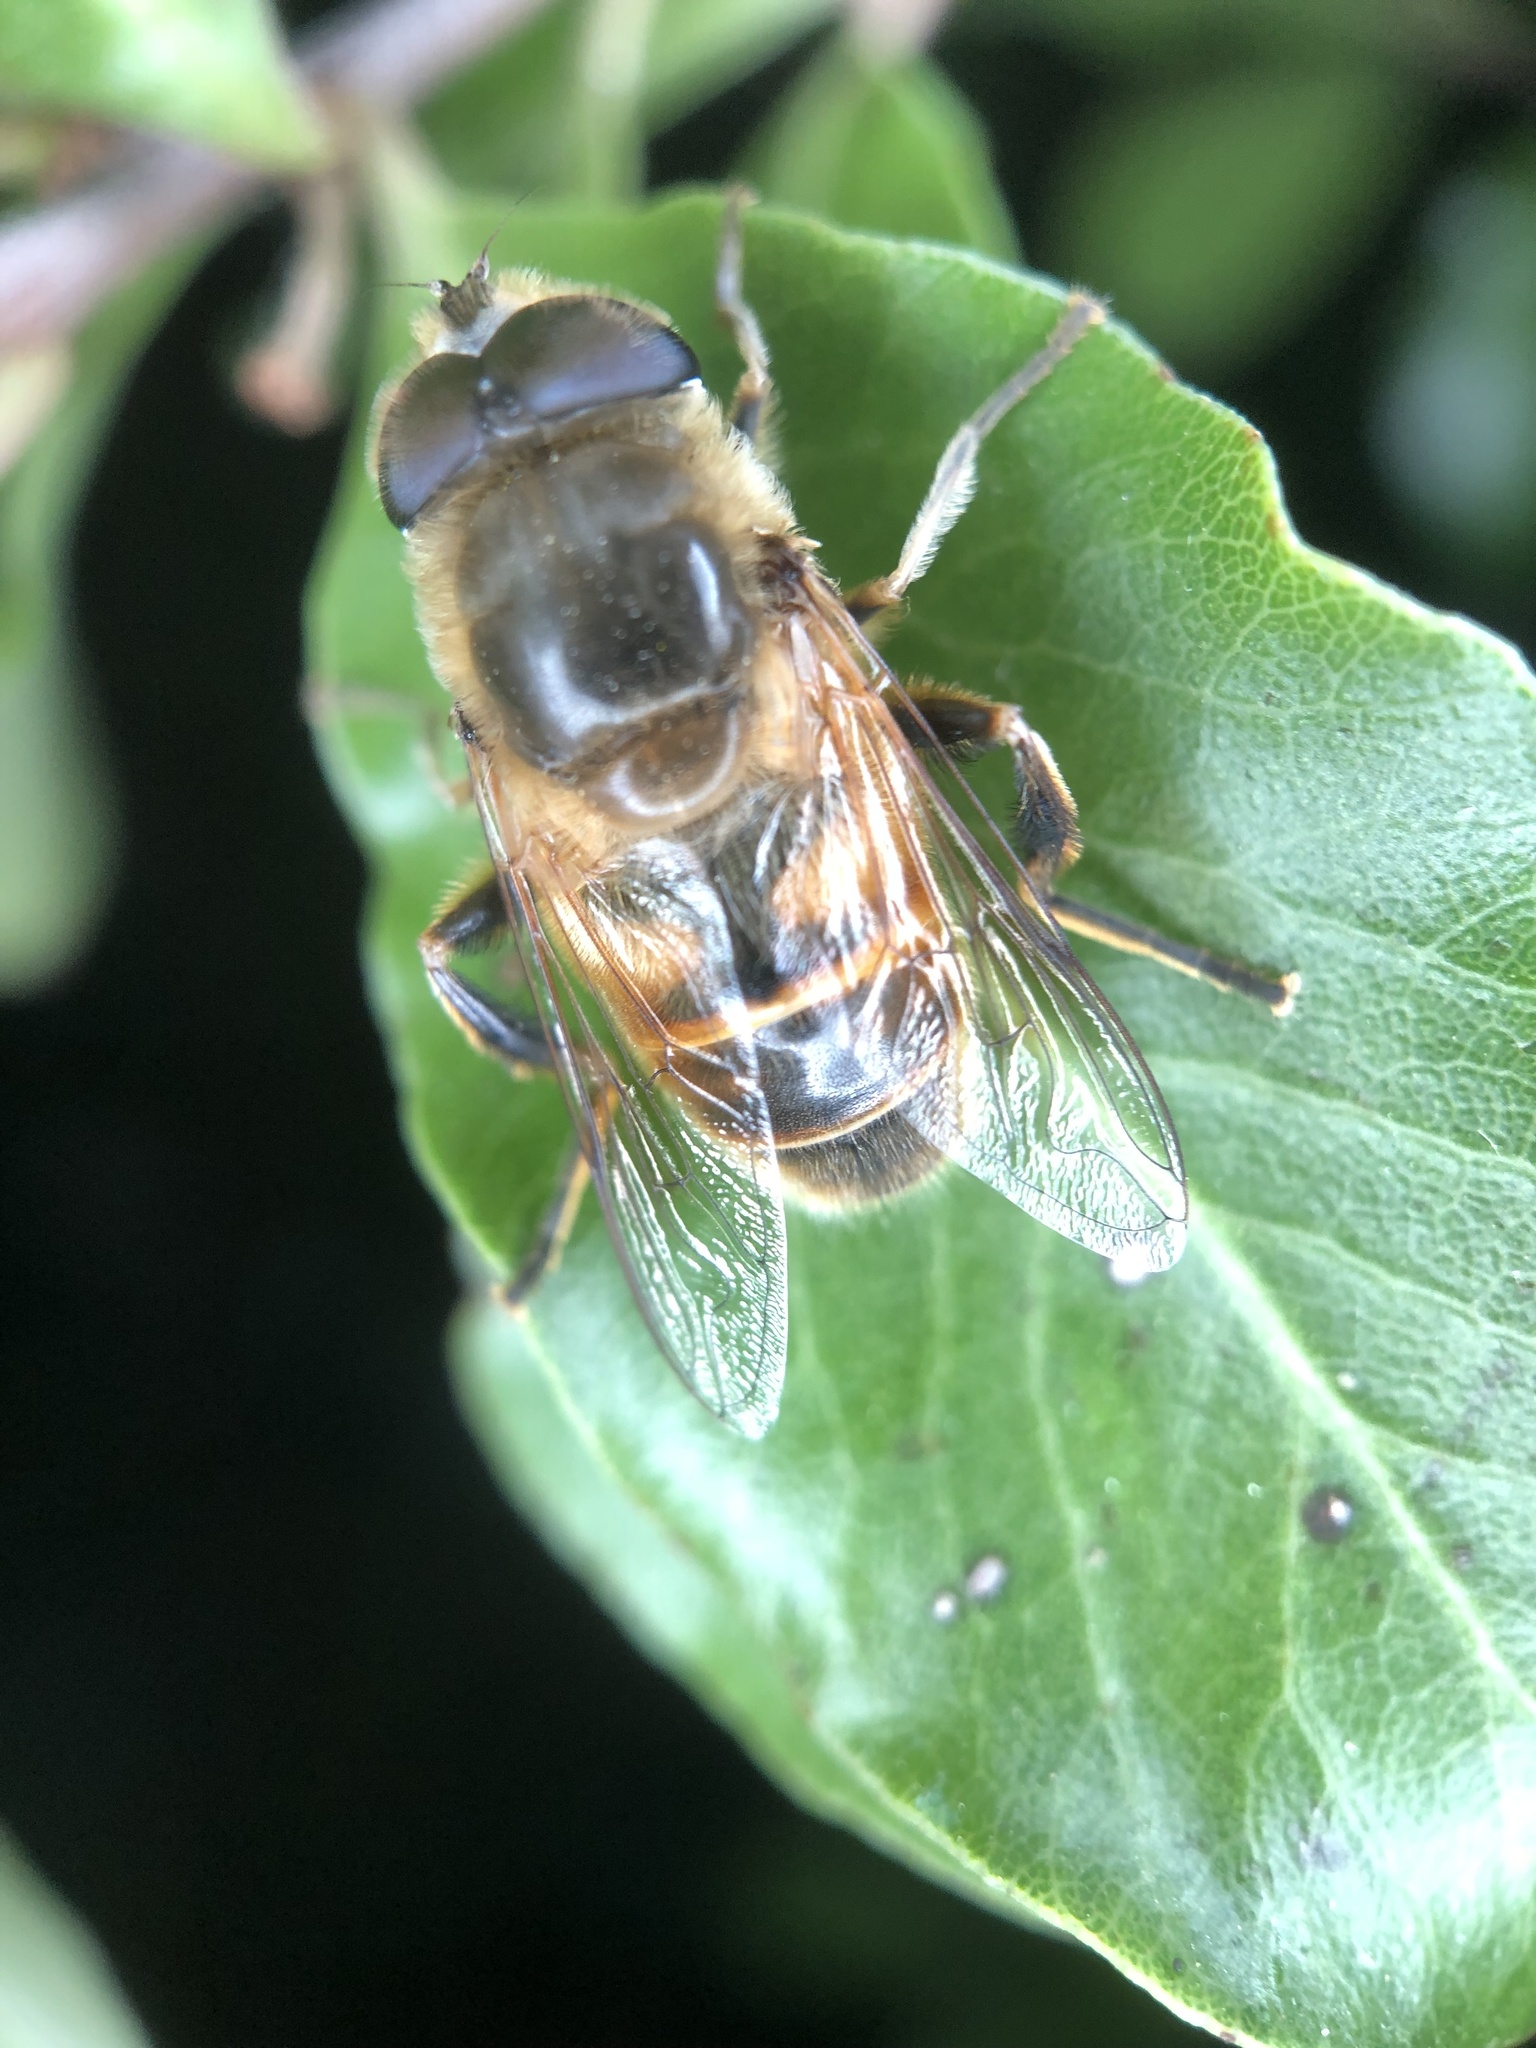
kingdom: Animalia
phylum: Arthropoda
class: Insecta
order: Diptera
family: Syrphidae
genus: Eristalis
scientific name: Eristalis tenax
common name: Drone fly
